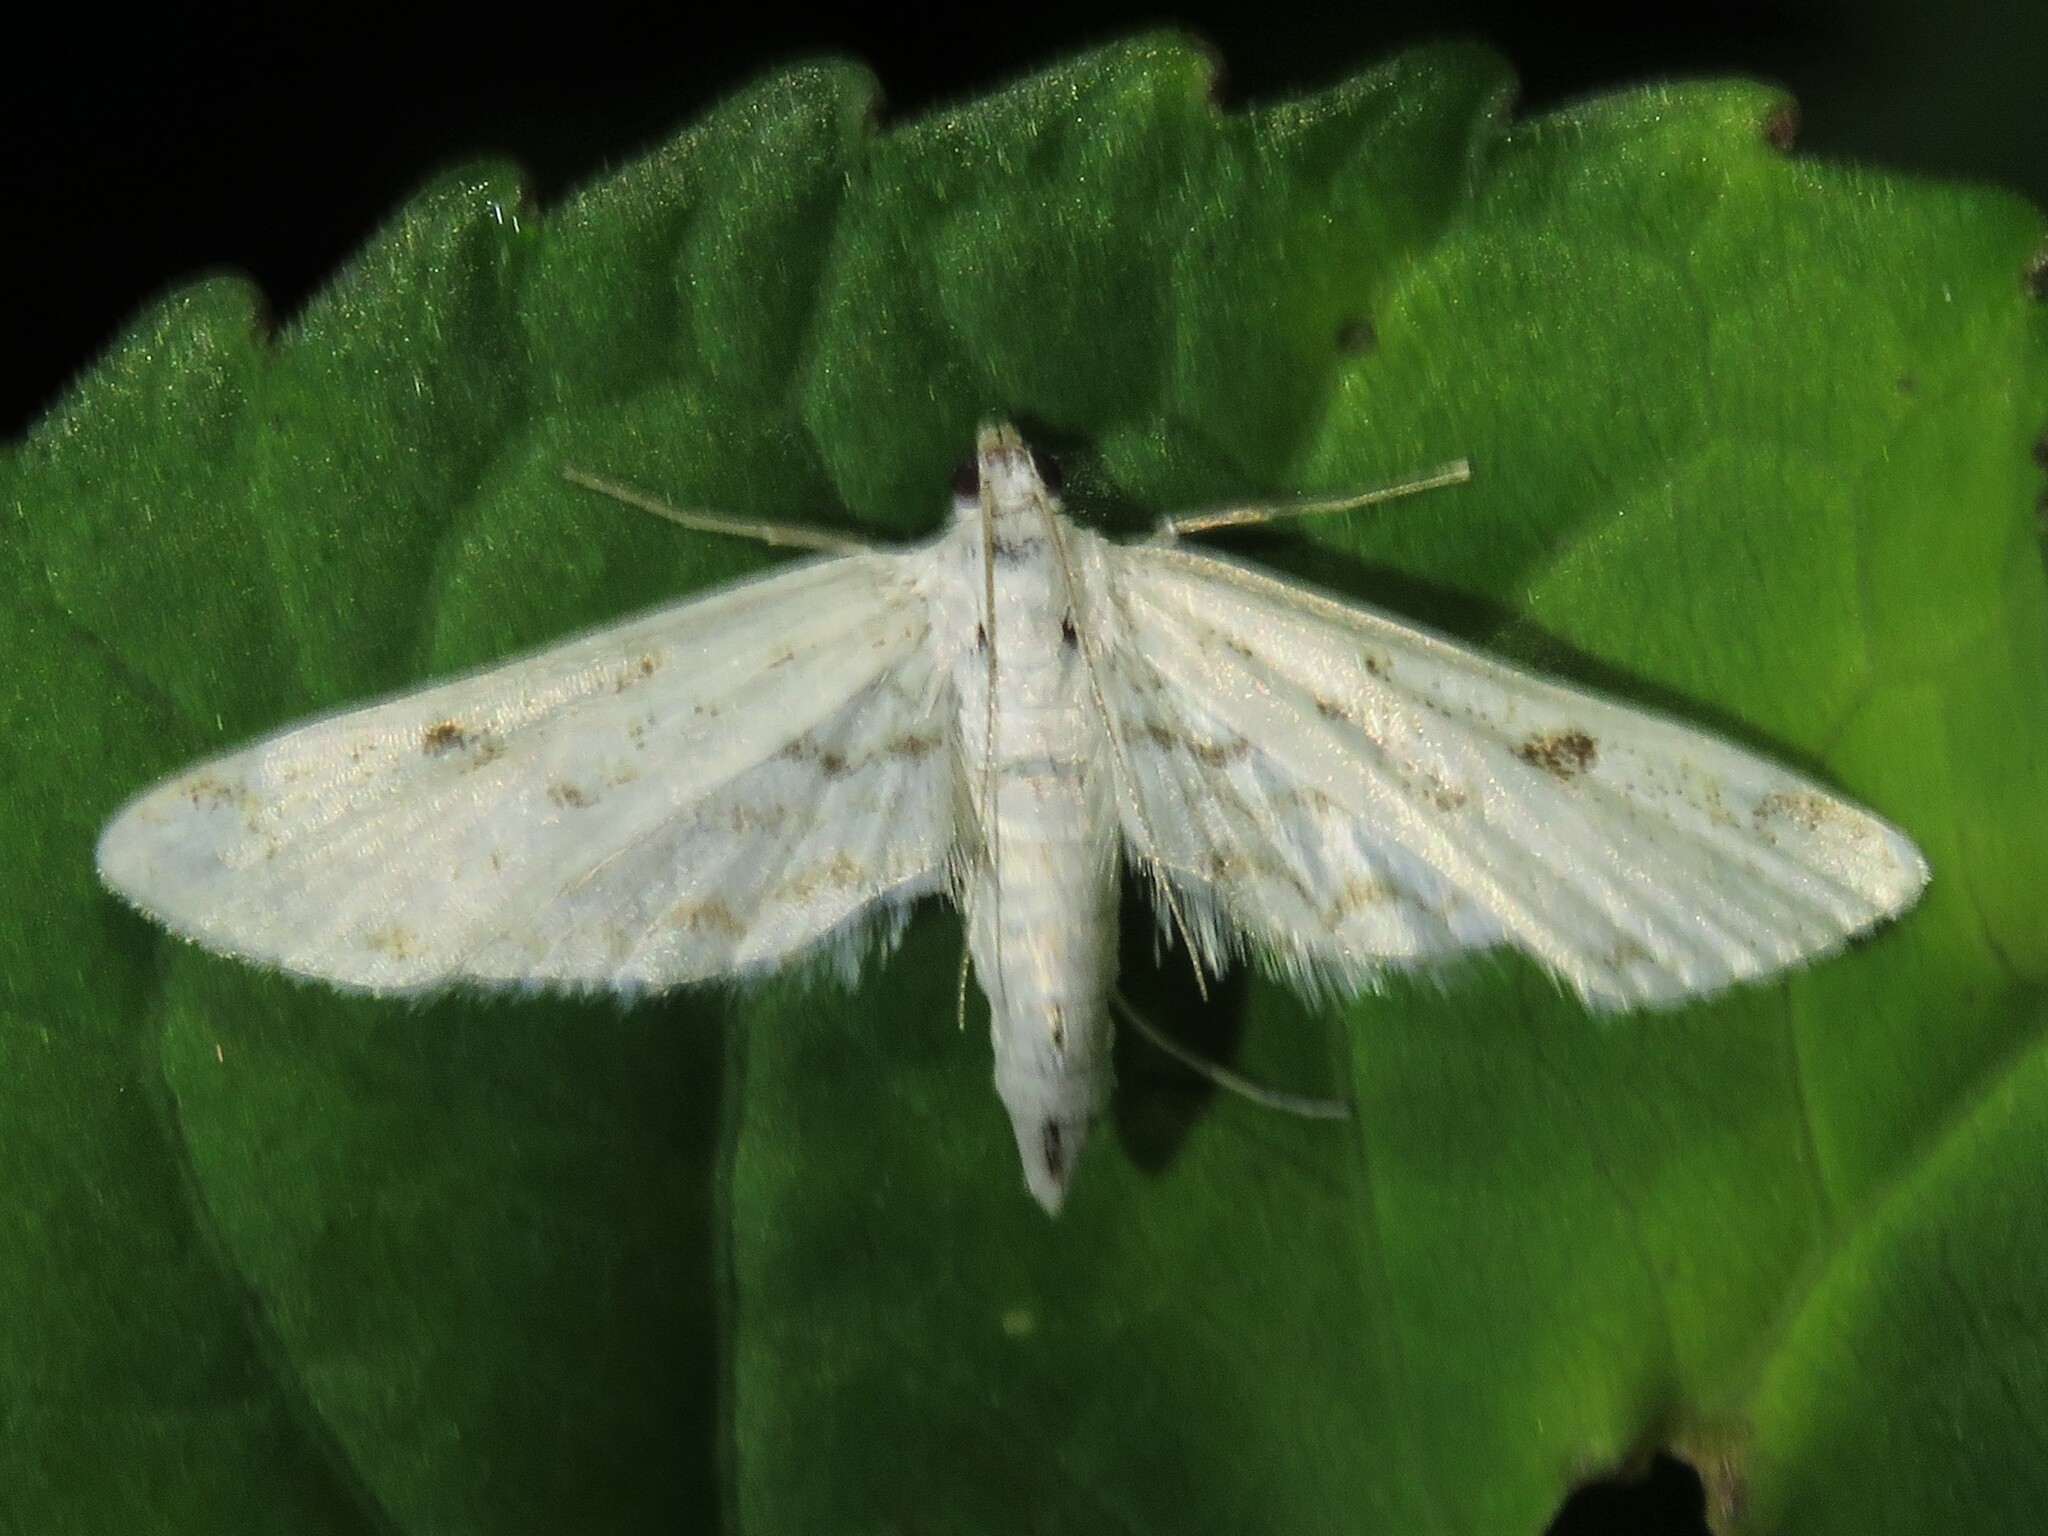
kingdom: Animalia
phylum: Arthropoda
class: Insecta
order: Lepidoptera
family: Crambidae
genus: Parapoynx
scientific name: Parapoynx allionealis
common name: Bladderwort casemaker
